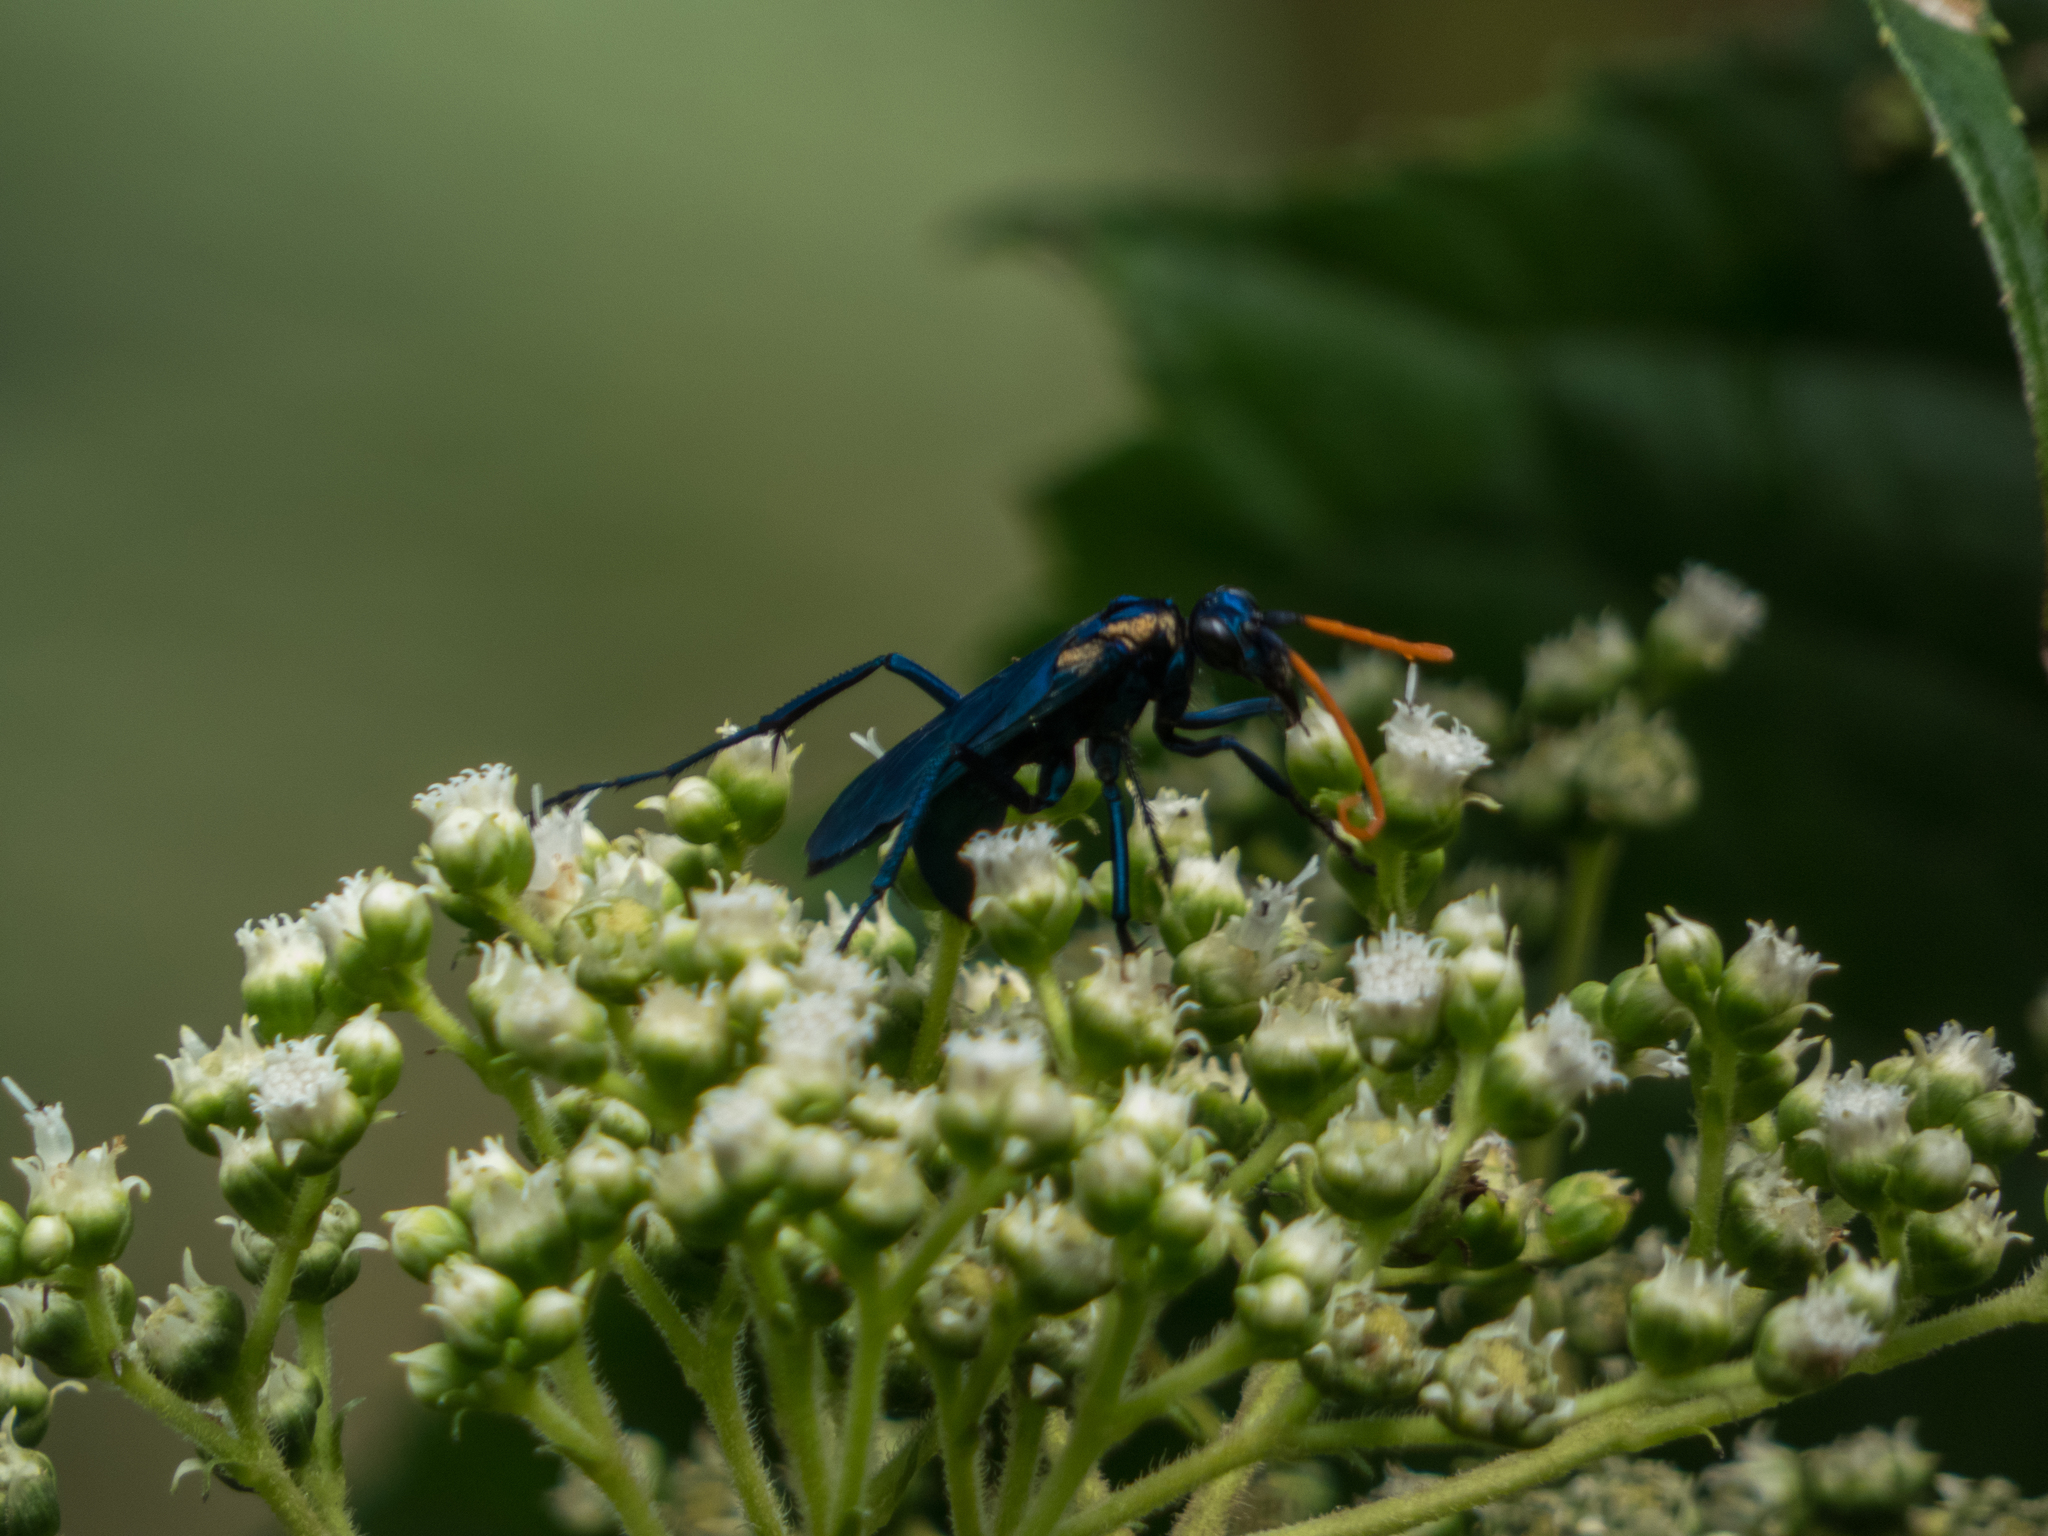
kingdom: Animalia
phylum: Arthropoda
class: Insecta
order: Hymenoptera
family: Pompilidae
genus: Pepsis
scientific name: Pepsis ruficornis
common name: Orange-horned tarantula hawk
